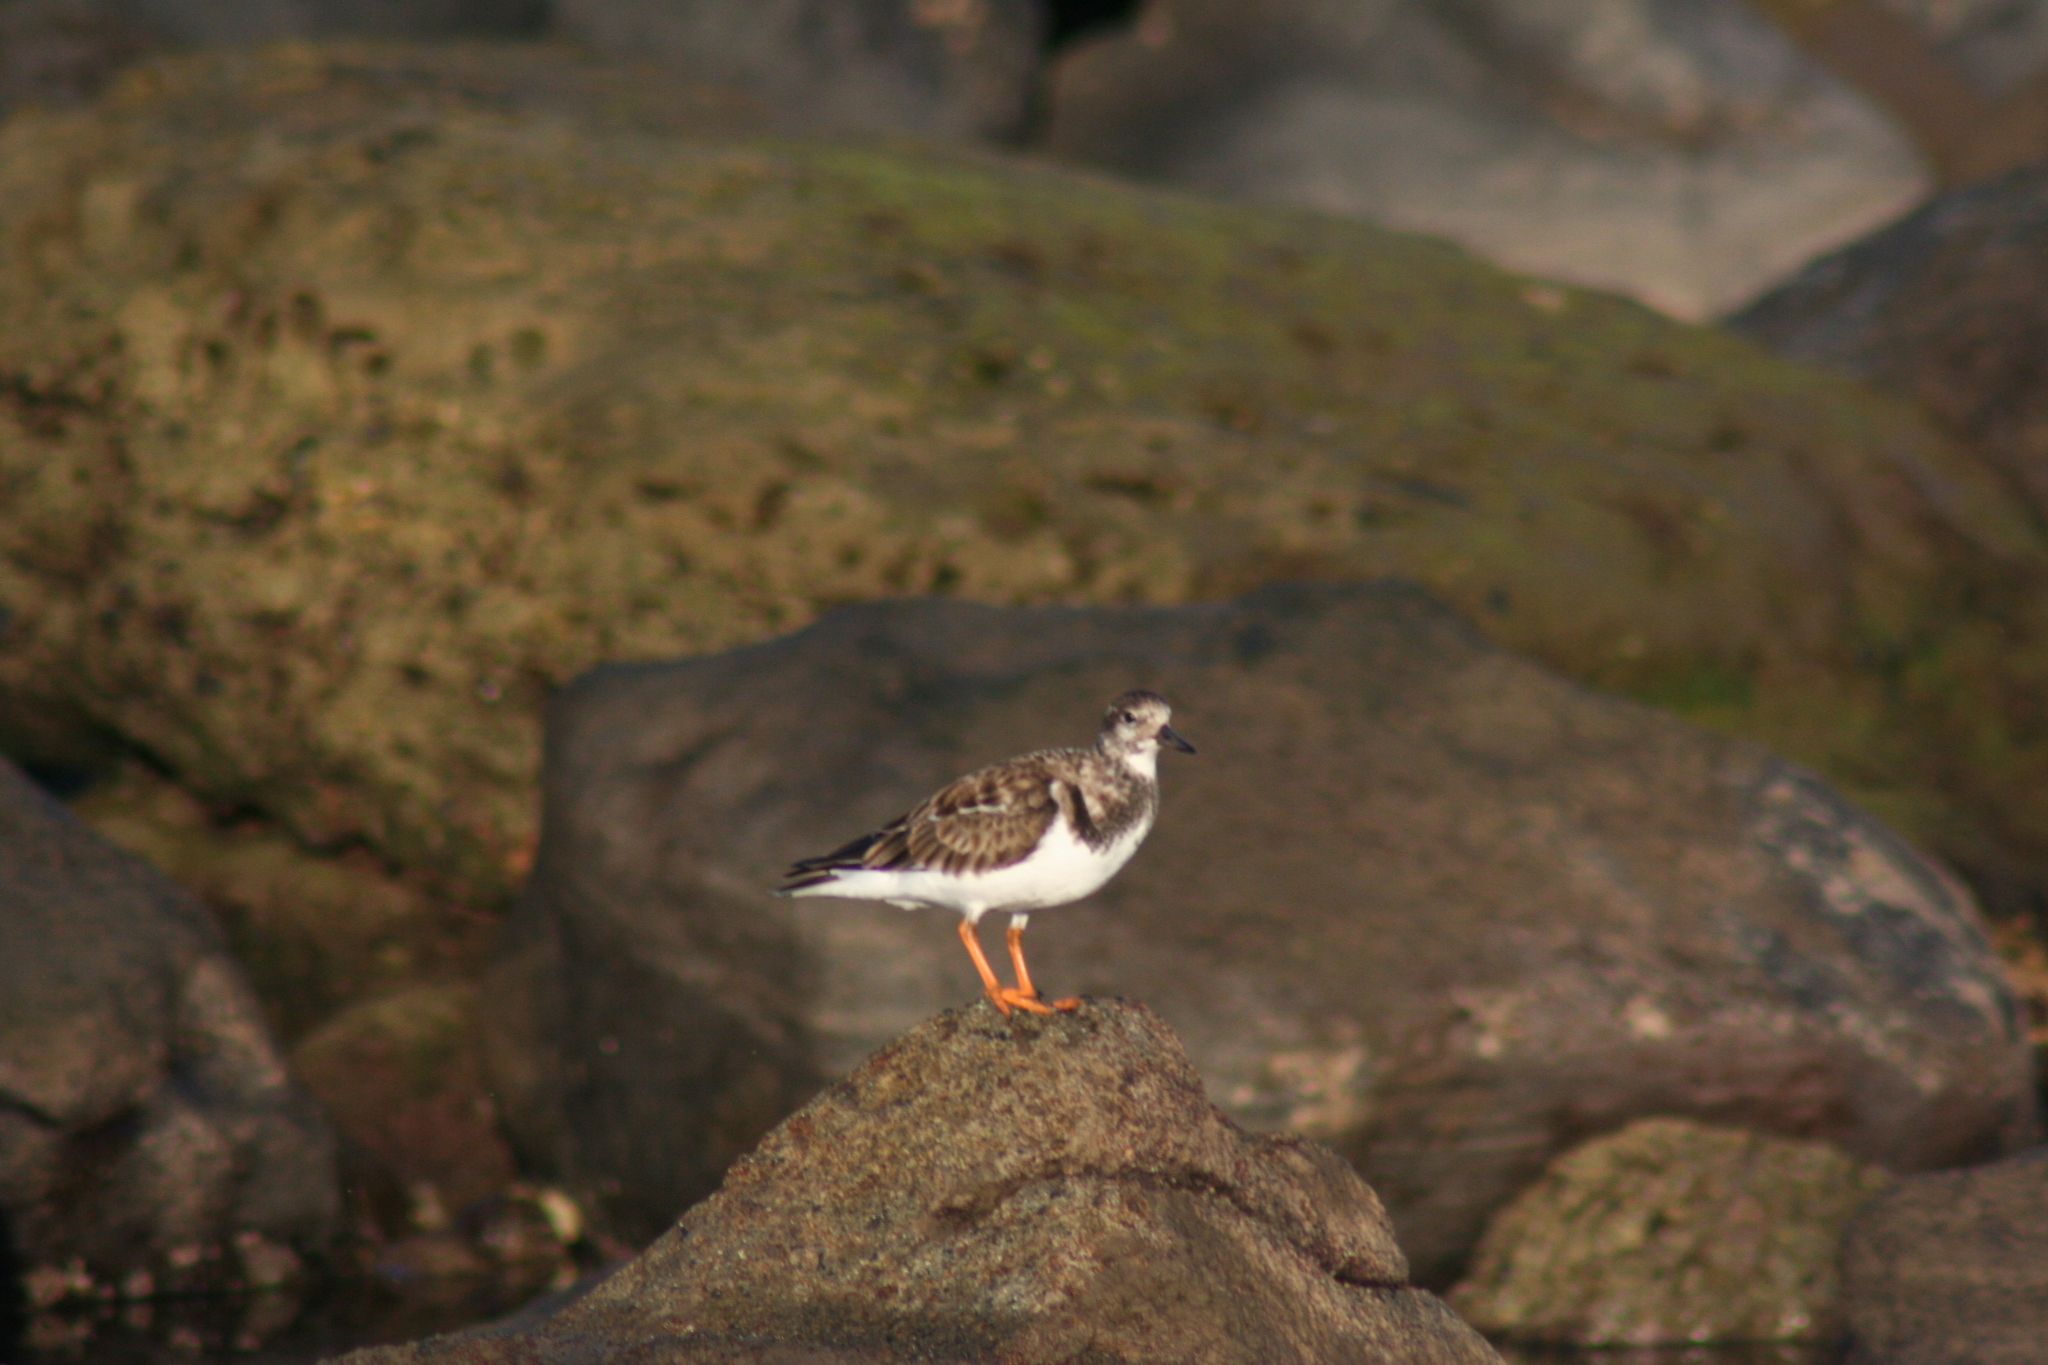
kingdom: Animalia
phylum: Chordata
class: Aves
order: Charadriiformes
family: Scolopacidae
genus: Arenaria
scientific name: Arenaria interpres
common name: Ruddy turnstone
